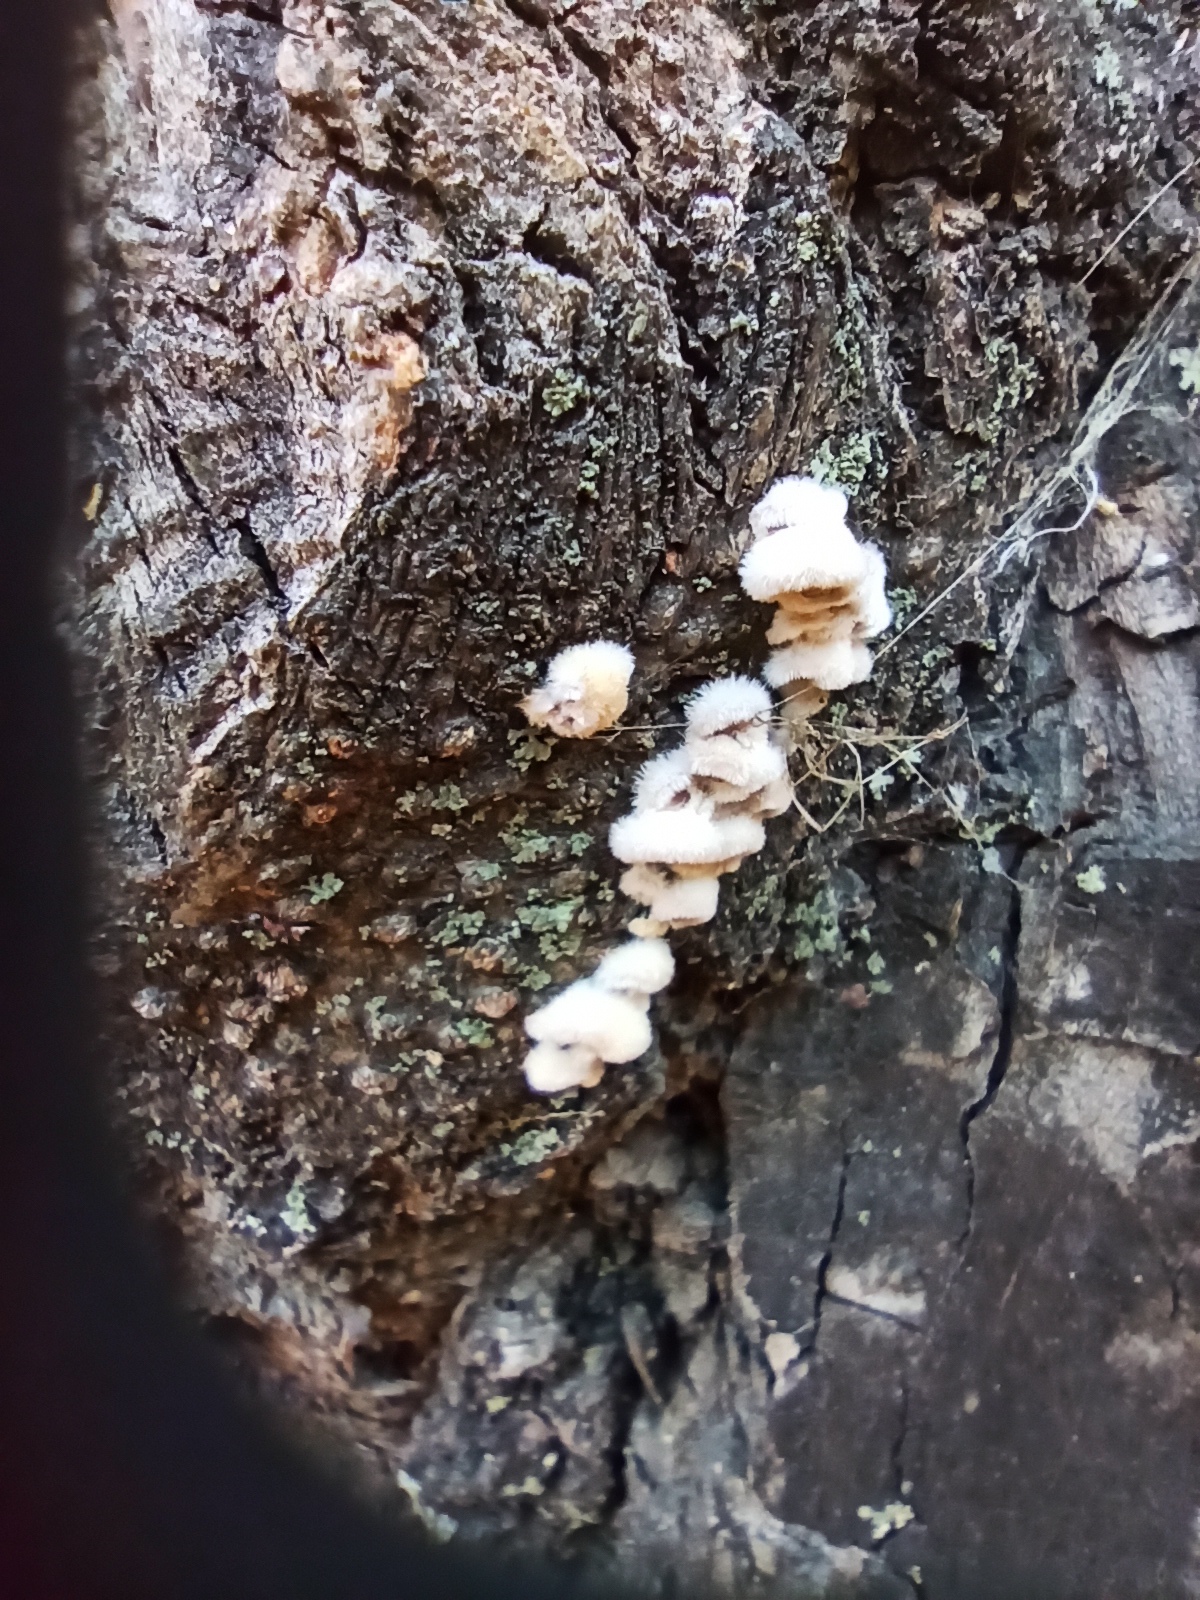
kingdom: Fungi
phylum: Basidiomycota
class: Agaricomycetes
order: Agaricales
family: Schizophyllaceae
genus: Schizophyllum
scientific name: Schizophyllum commune
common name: Common porecrust
